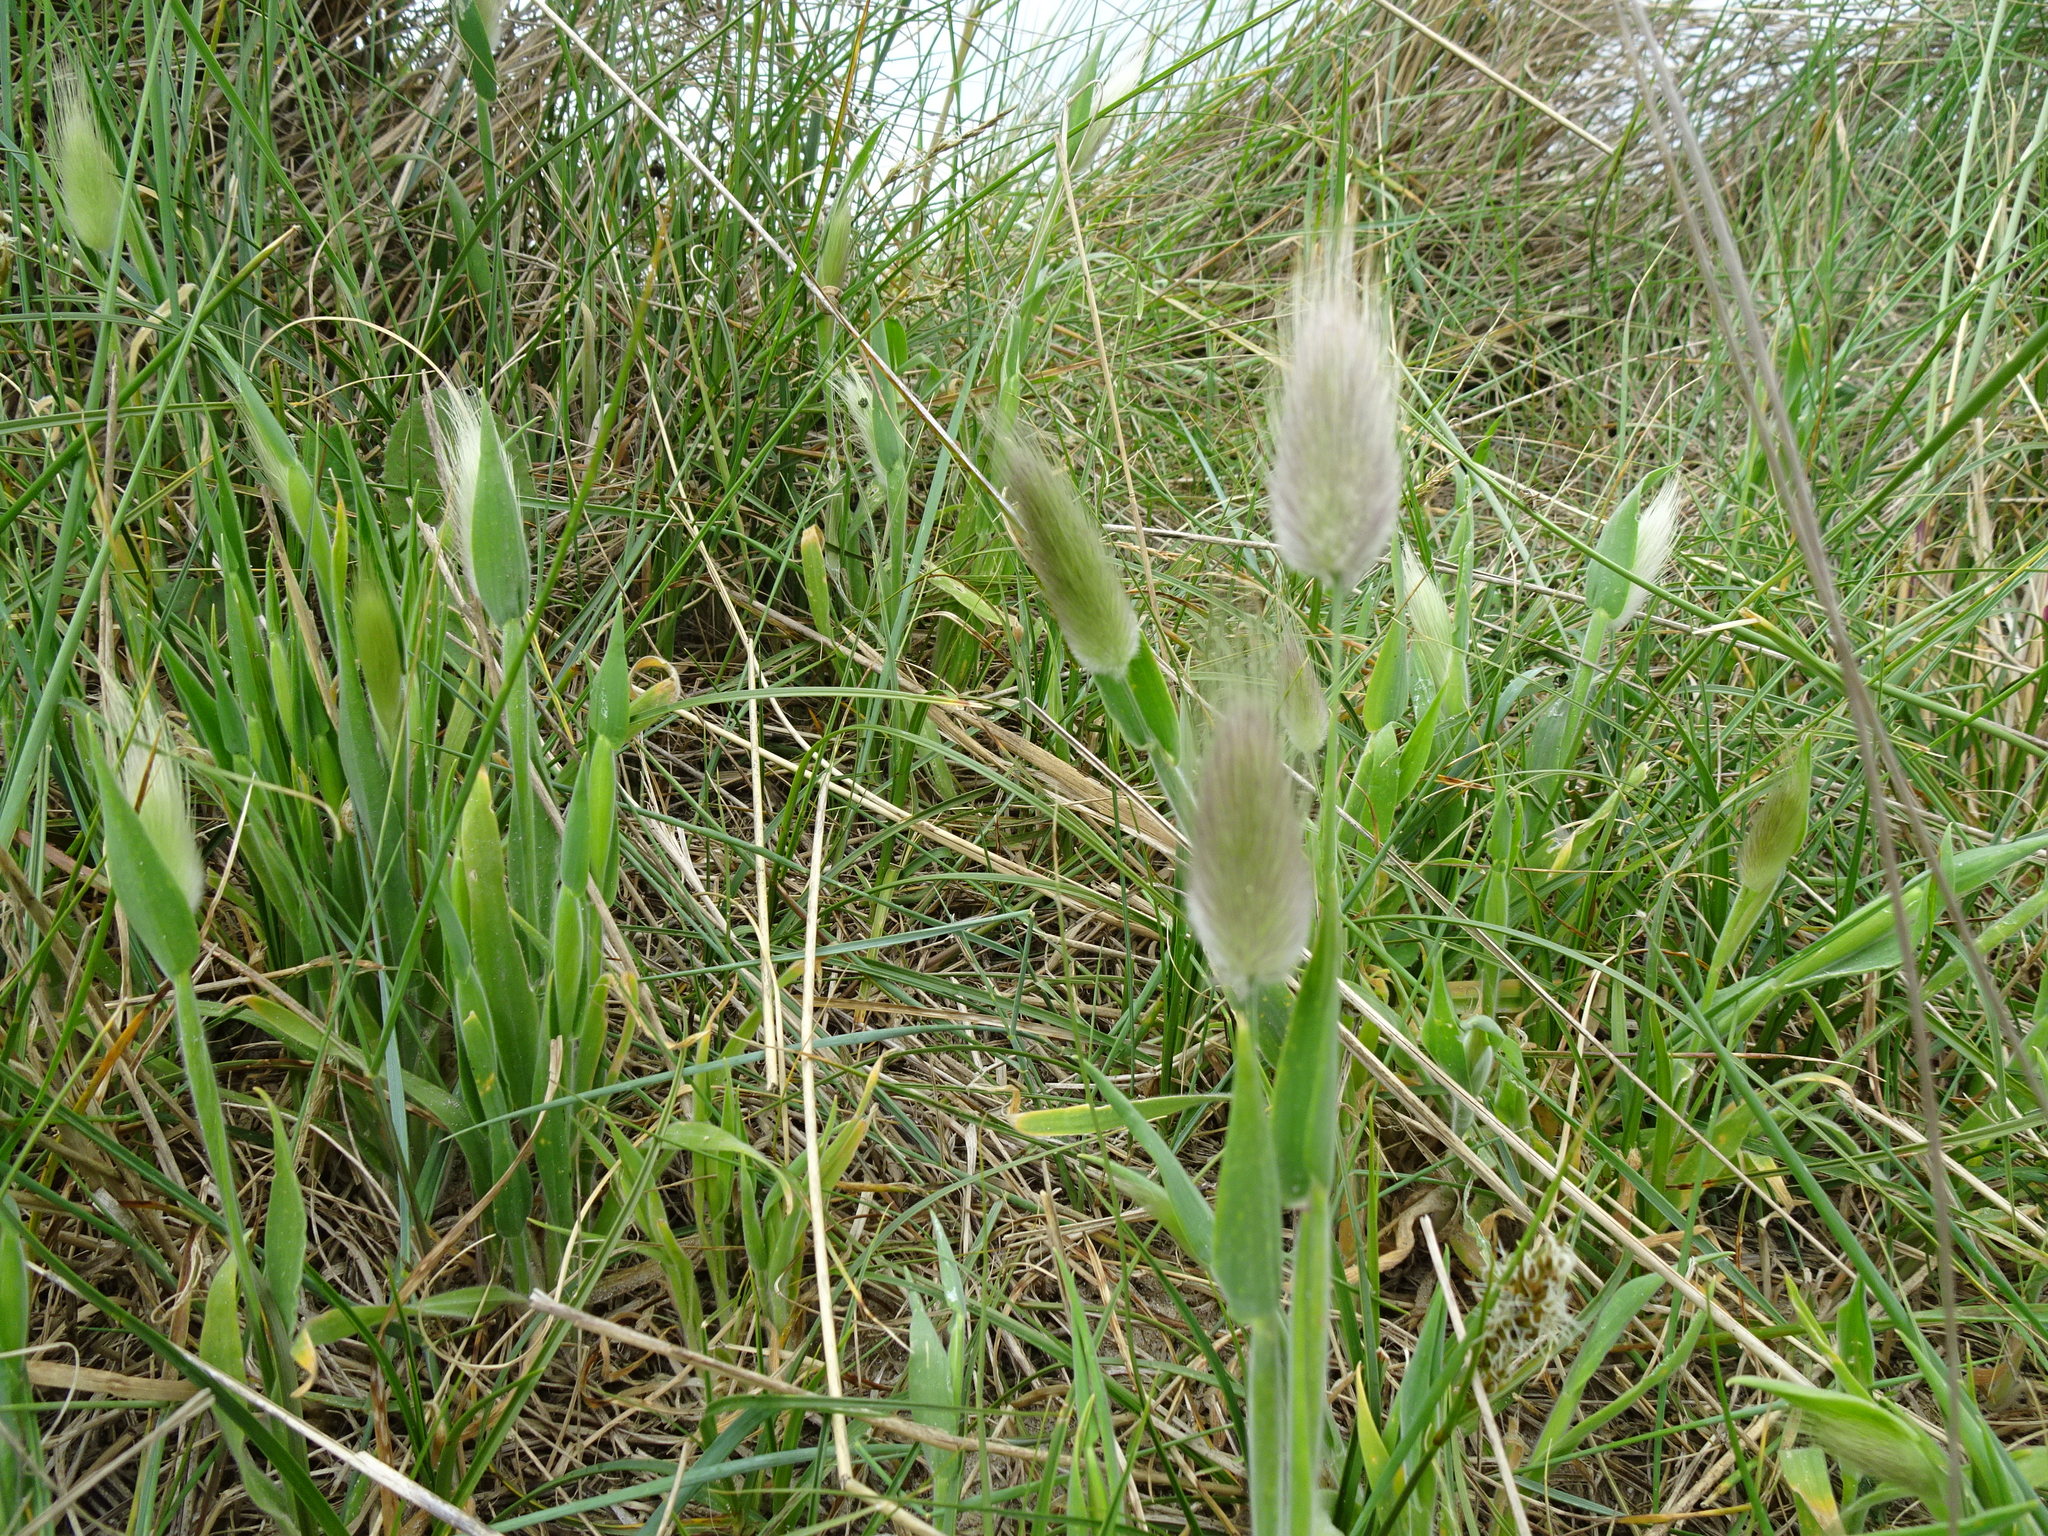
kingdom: Plantae
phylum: Tracheophyta
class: Liliopsida
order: Poales
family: Poaceae
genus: Lagurus
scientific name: Lagurus ovatus
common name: Hare's-tail
